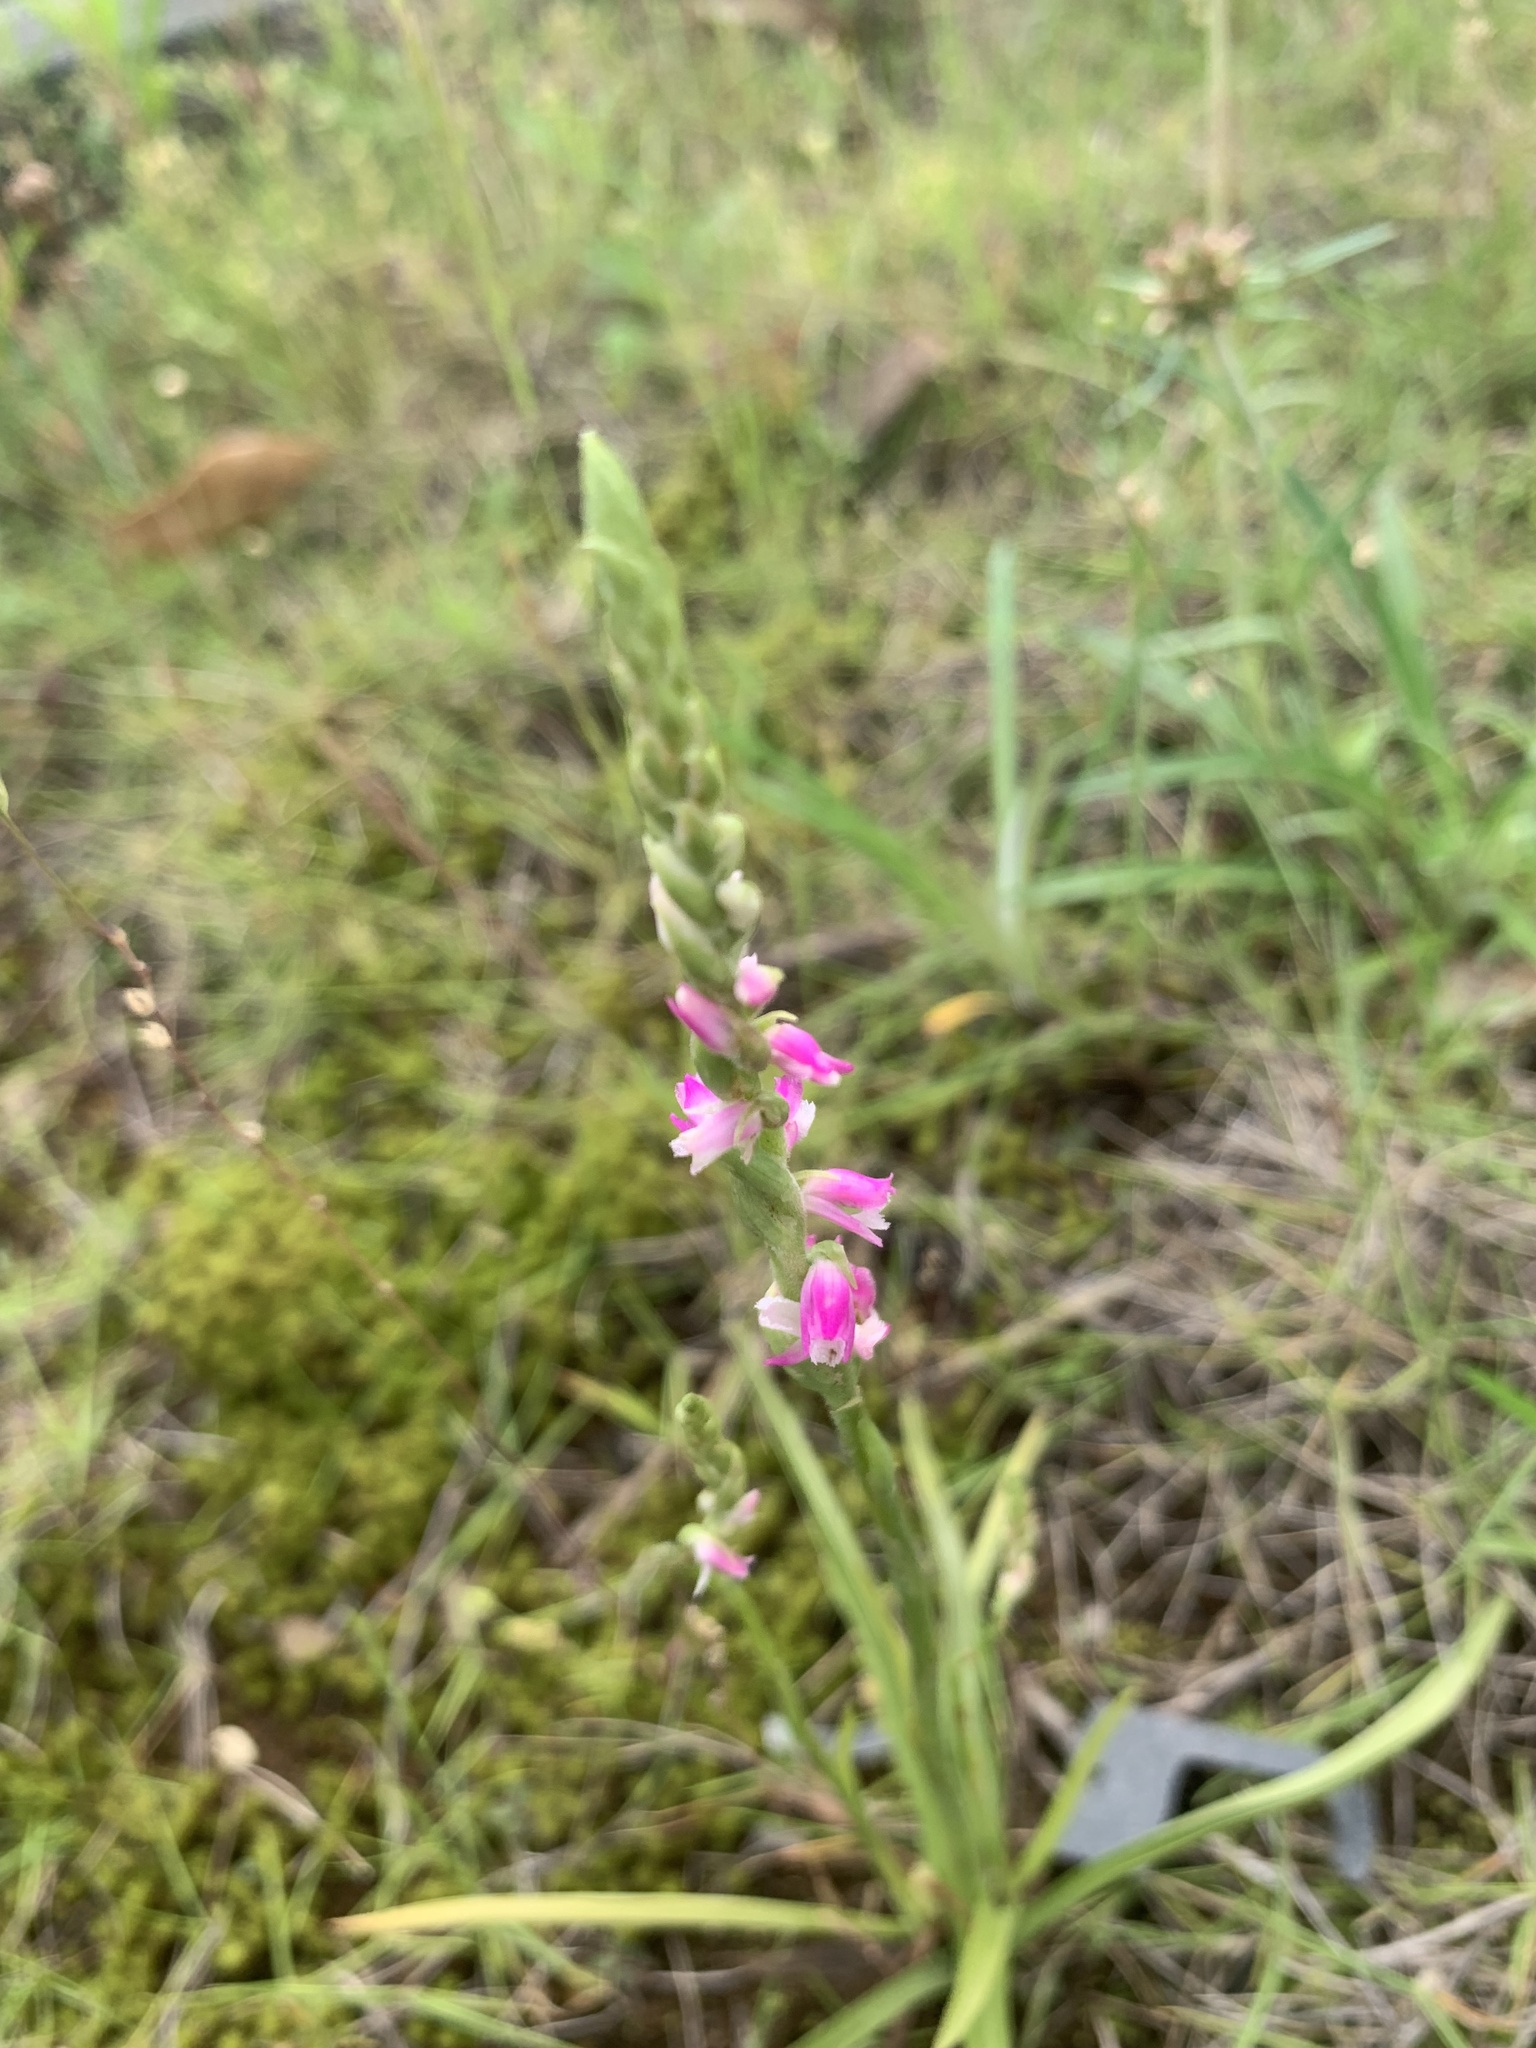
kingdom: Plantae
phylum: Tracheophyta
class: Liliopsida
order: Asparagales
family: Orchidaceae
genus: Spiranthes
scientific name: Spiranthes australis
